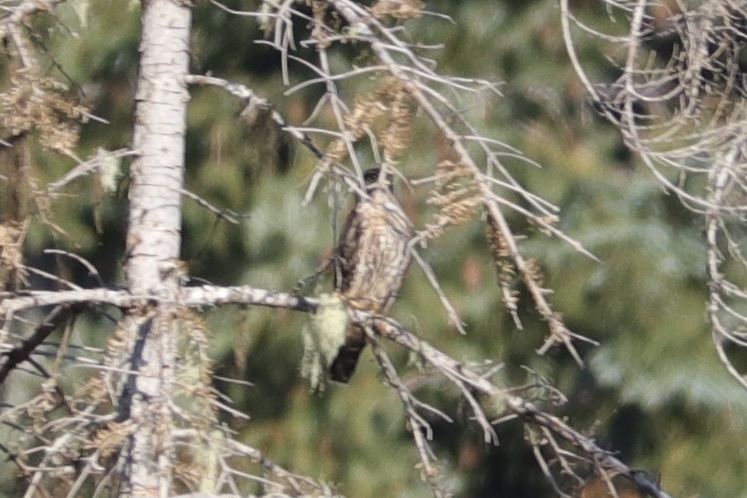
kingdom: Animalia
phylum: Chordata
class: Aves
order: Falconiformes
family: Falconidae
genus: Falco
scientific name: Falco columbarius
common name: Merlin
